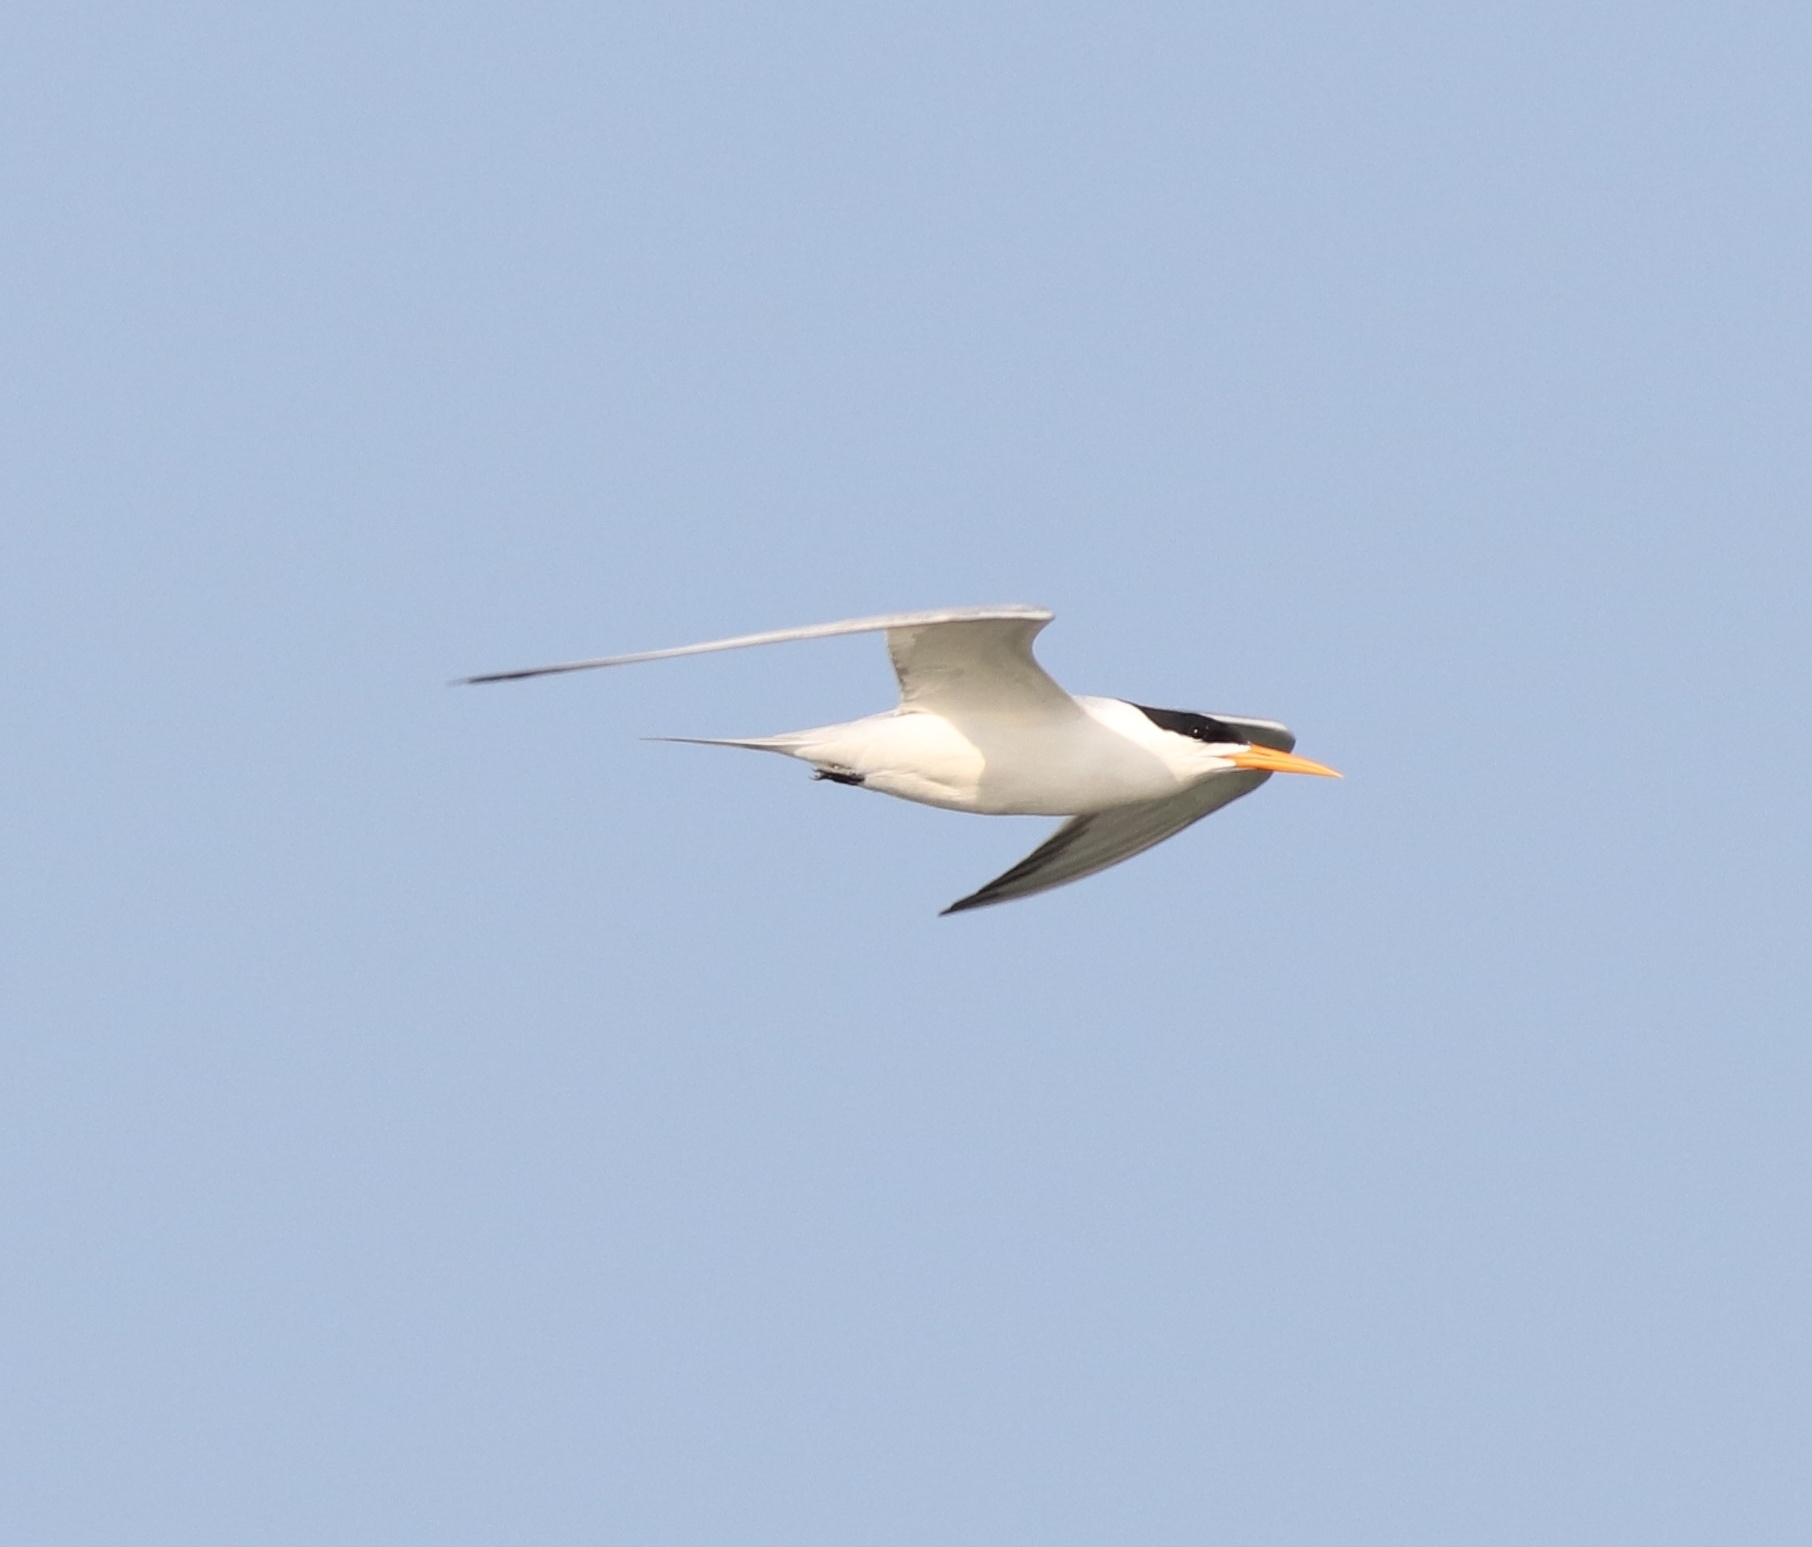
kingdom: Animalia
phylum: Chordata
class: Aves
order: Charadriiformes
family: Laridae
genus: Thalasseus
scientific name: Thalasseus bengalensis
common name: Lesser crested tern
